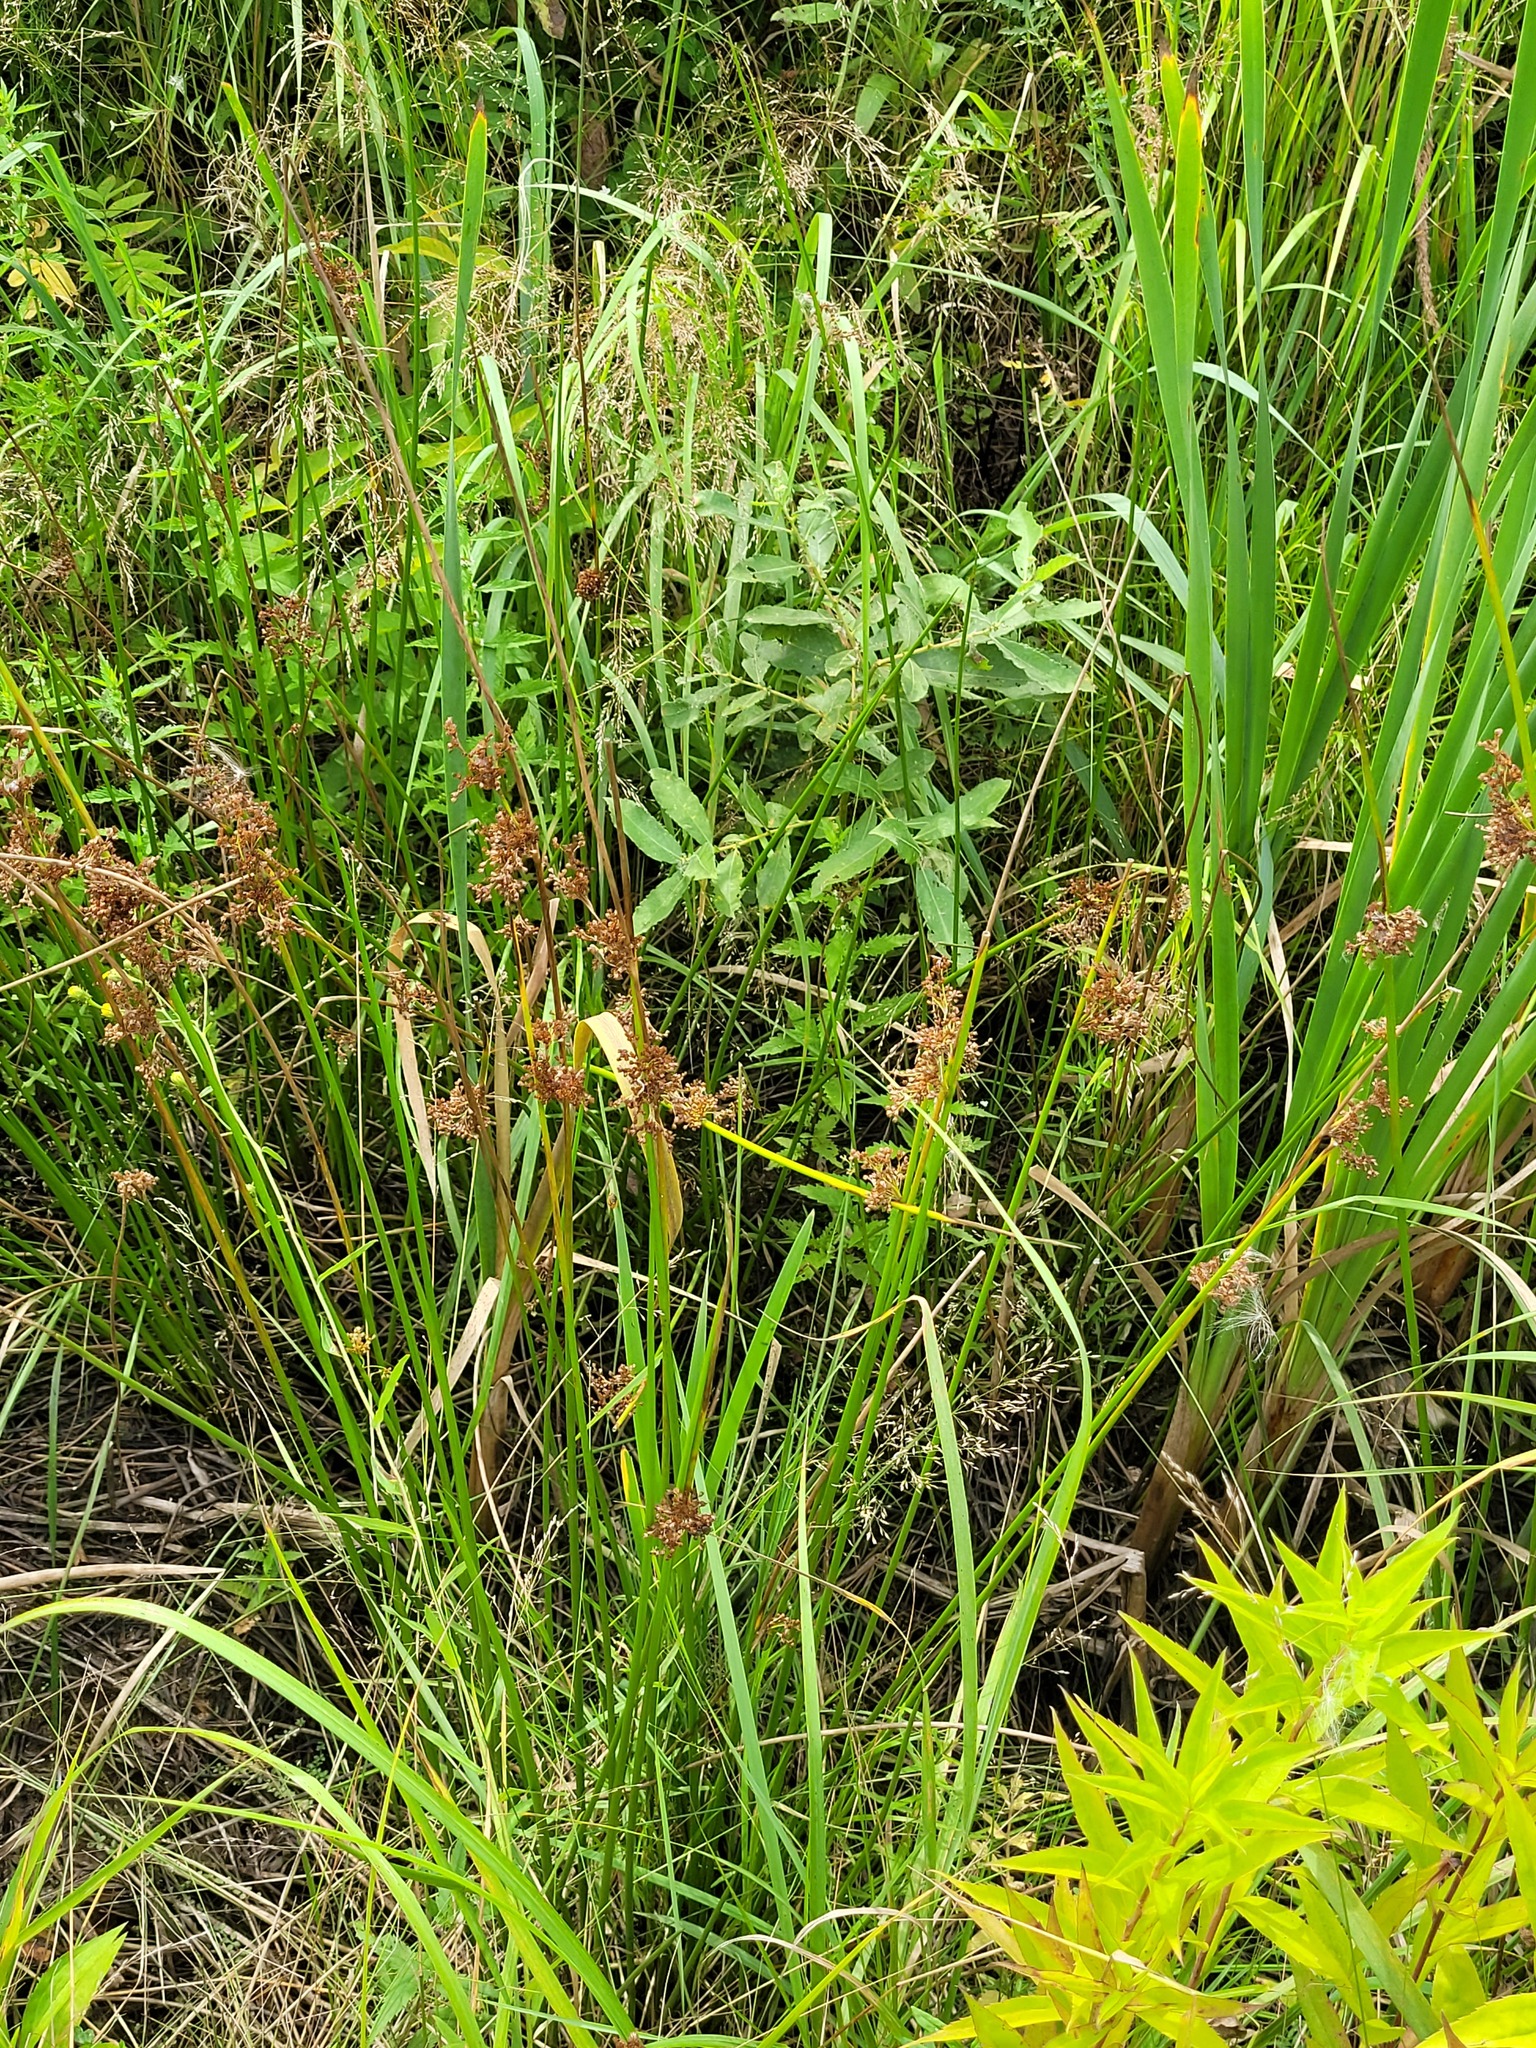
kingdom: Plantae
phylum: Tracheophyta
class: Liliopsida
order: Poales
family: Juncaceae
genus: Juncus
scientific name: Juncus effusus
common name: Soft rush
